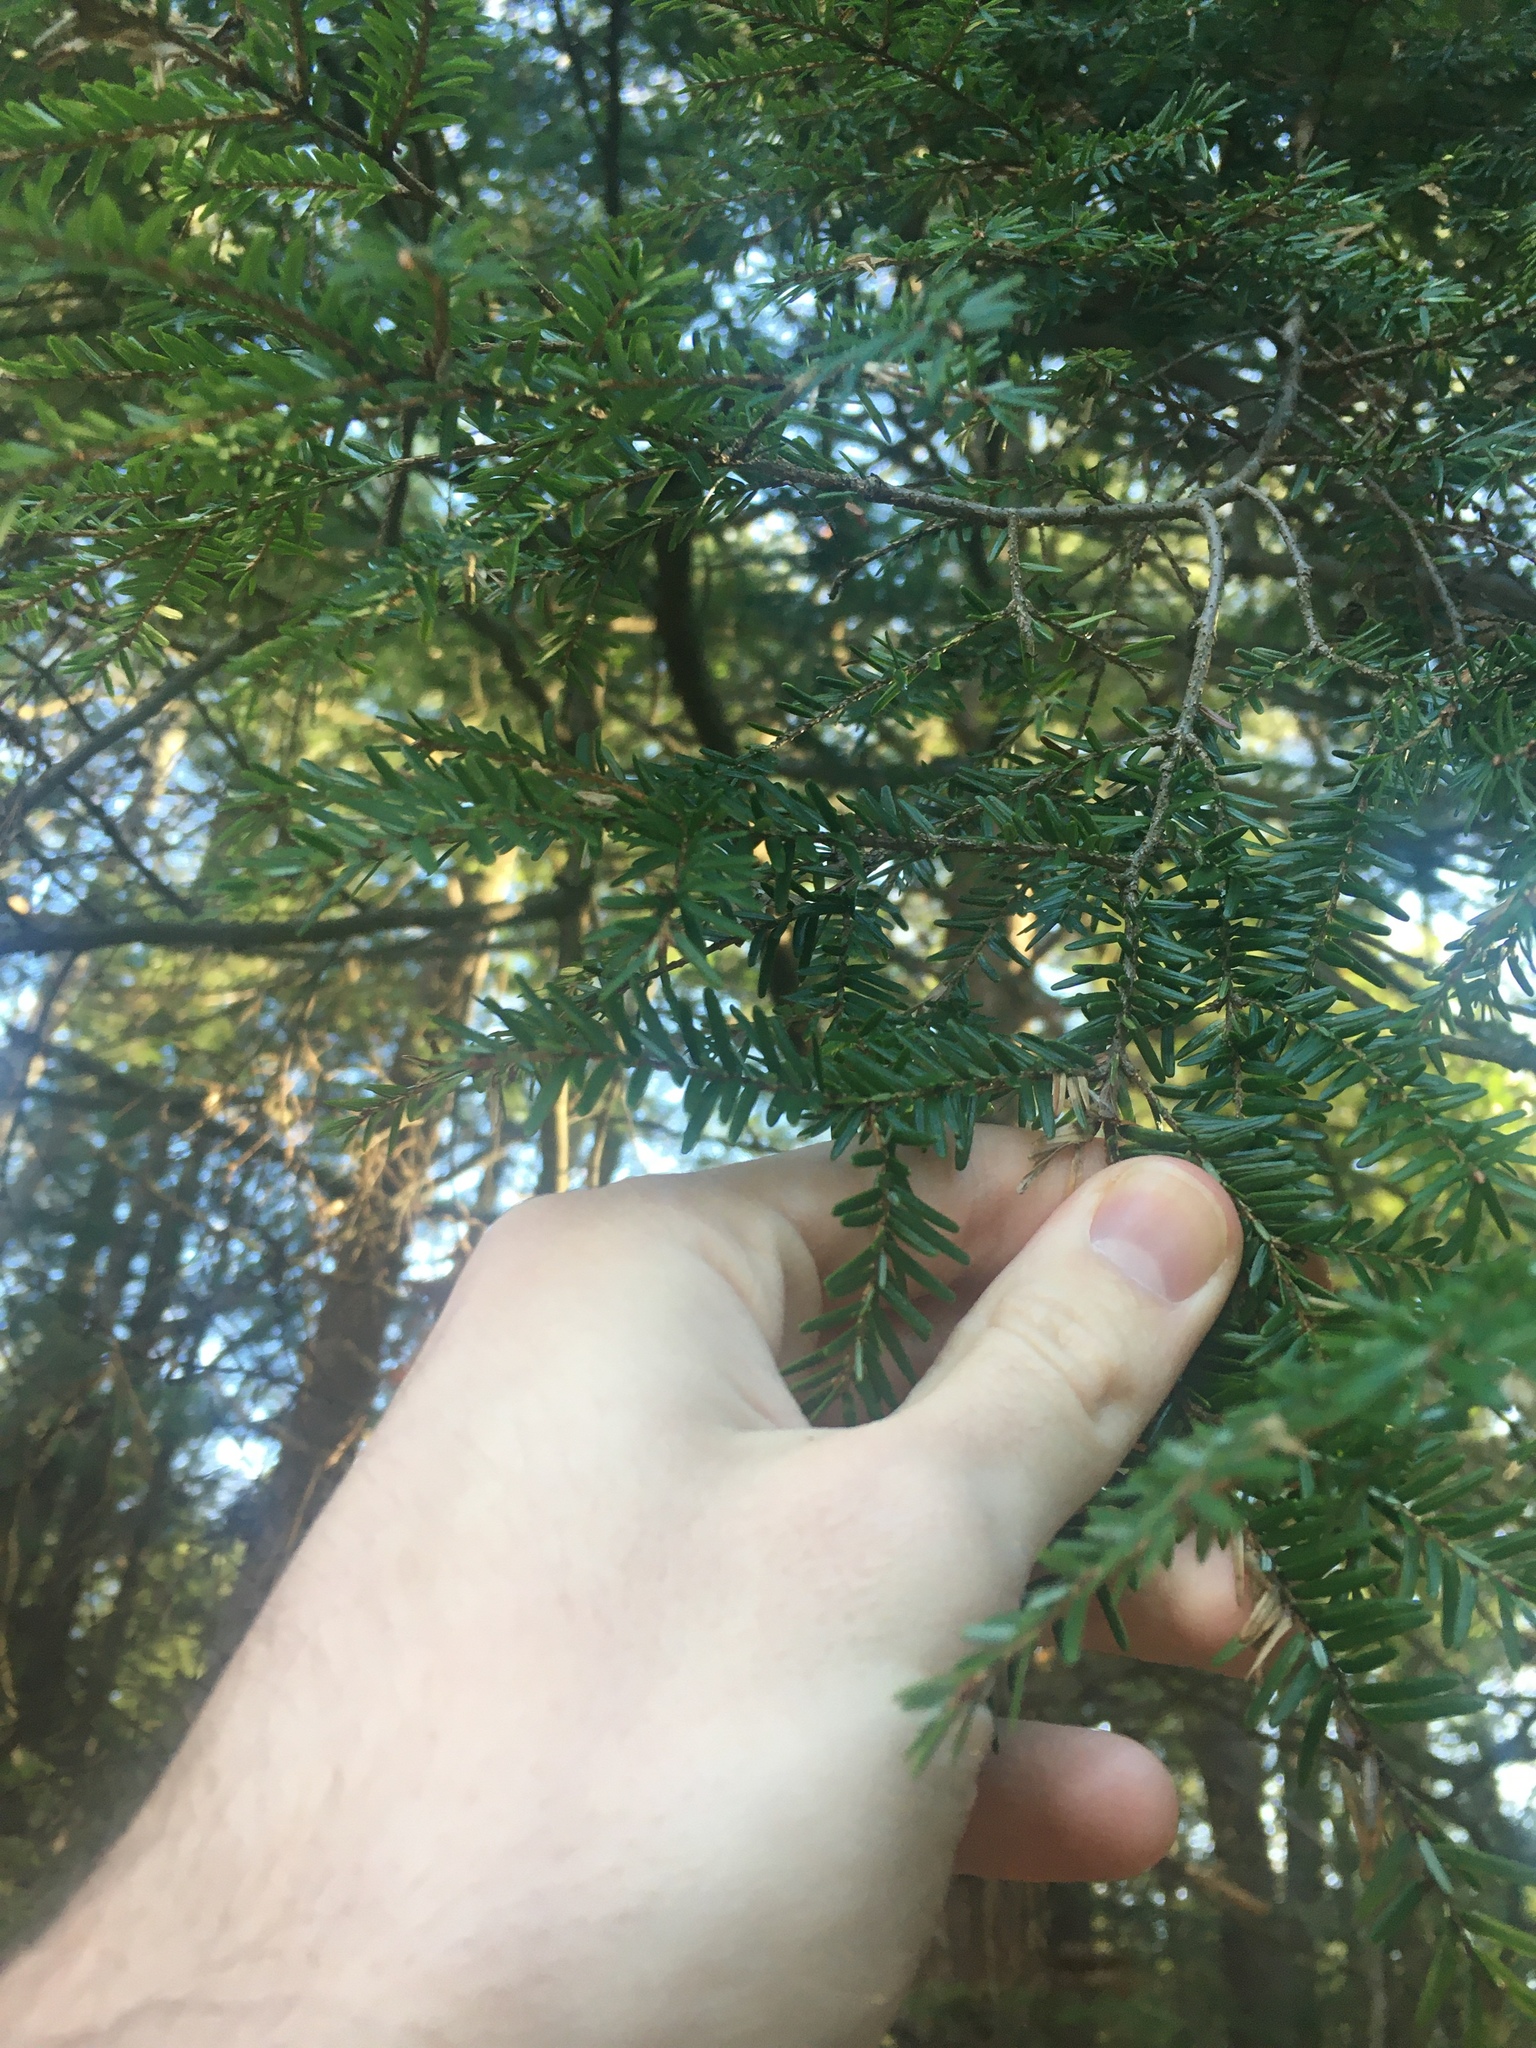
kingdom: Plantae
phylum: Tracheophyta
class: Pinopsida
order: Pinales
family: Pinaceae
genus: Tsuga
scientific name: Tsuga canadensis
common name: Eastern hemlock
